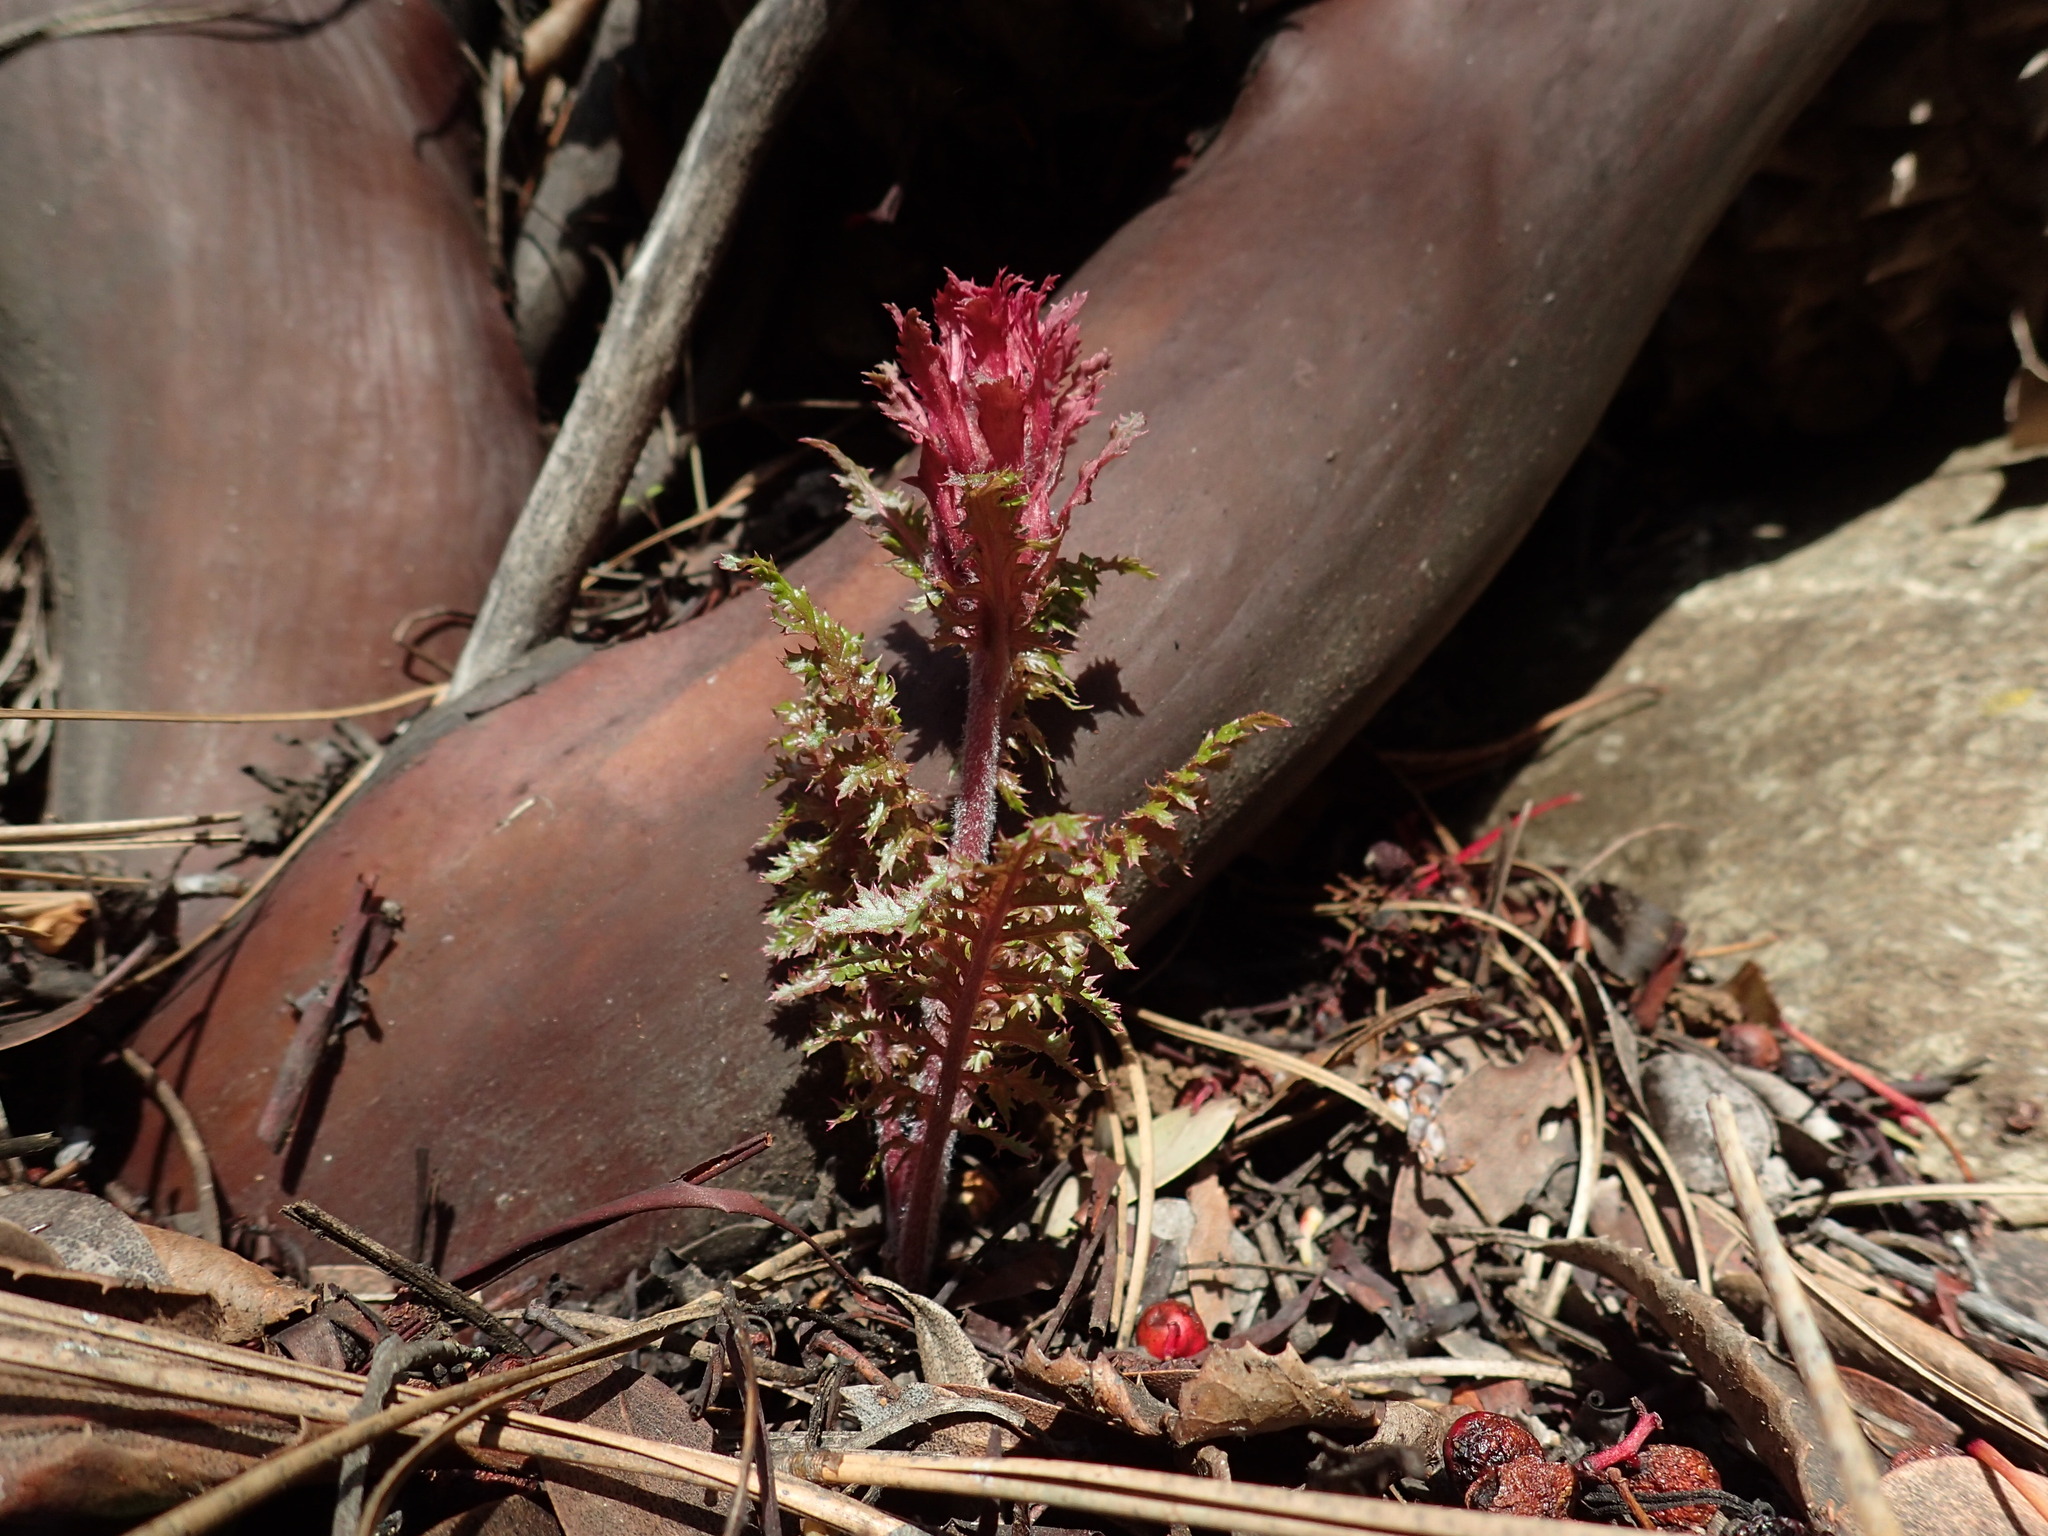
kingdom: Plantae
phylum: Tracheophyta
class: Magnoliopsida
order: Lamiales
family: Orobanchaceae
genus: Pedicularis
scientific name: Pedicularis densiflora
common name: Indian warrior
